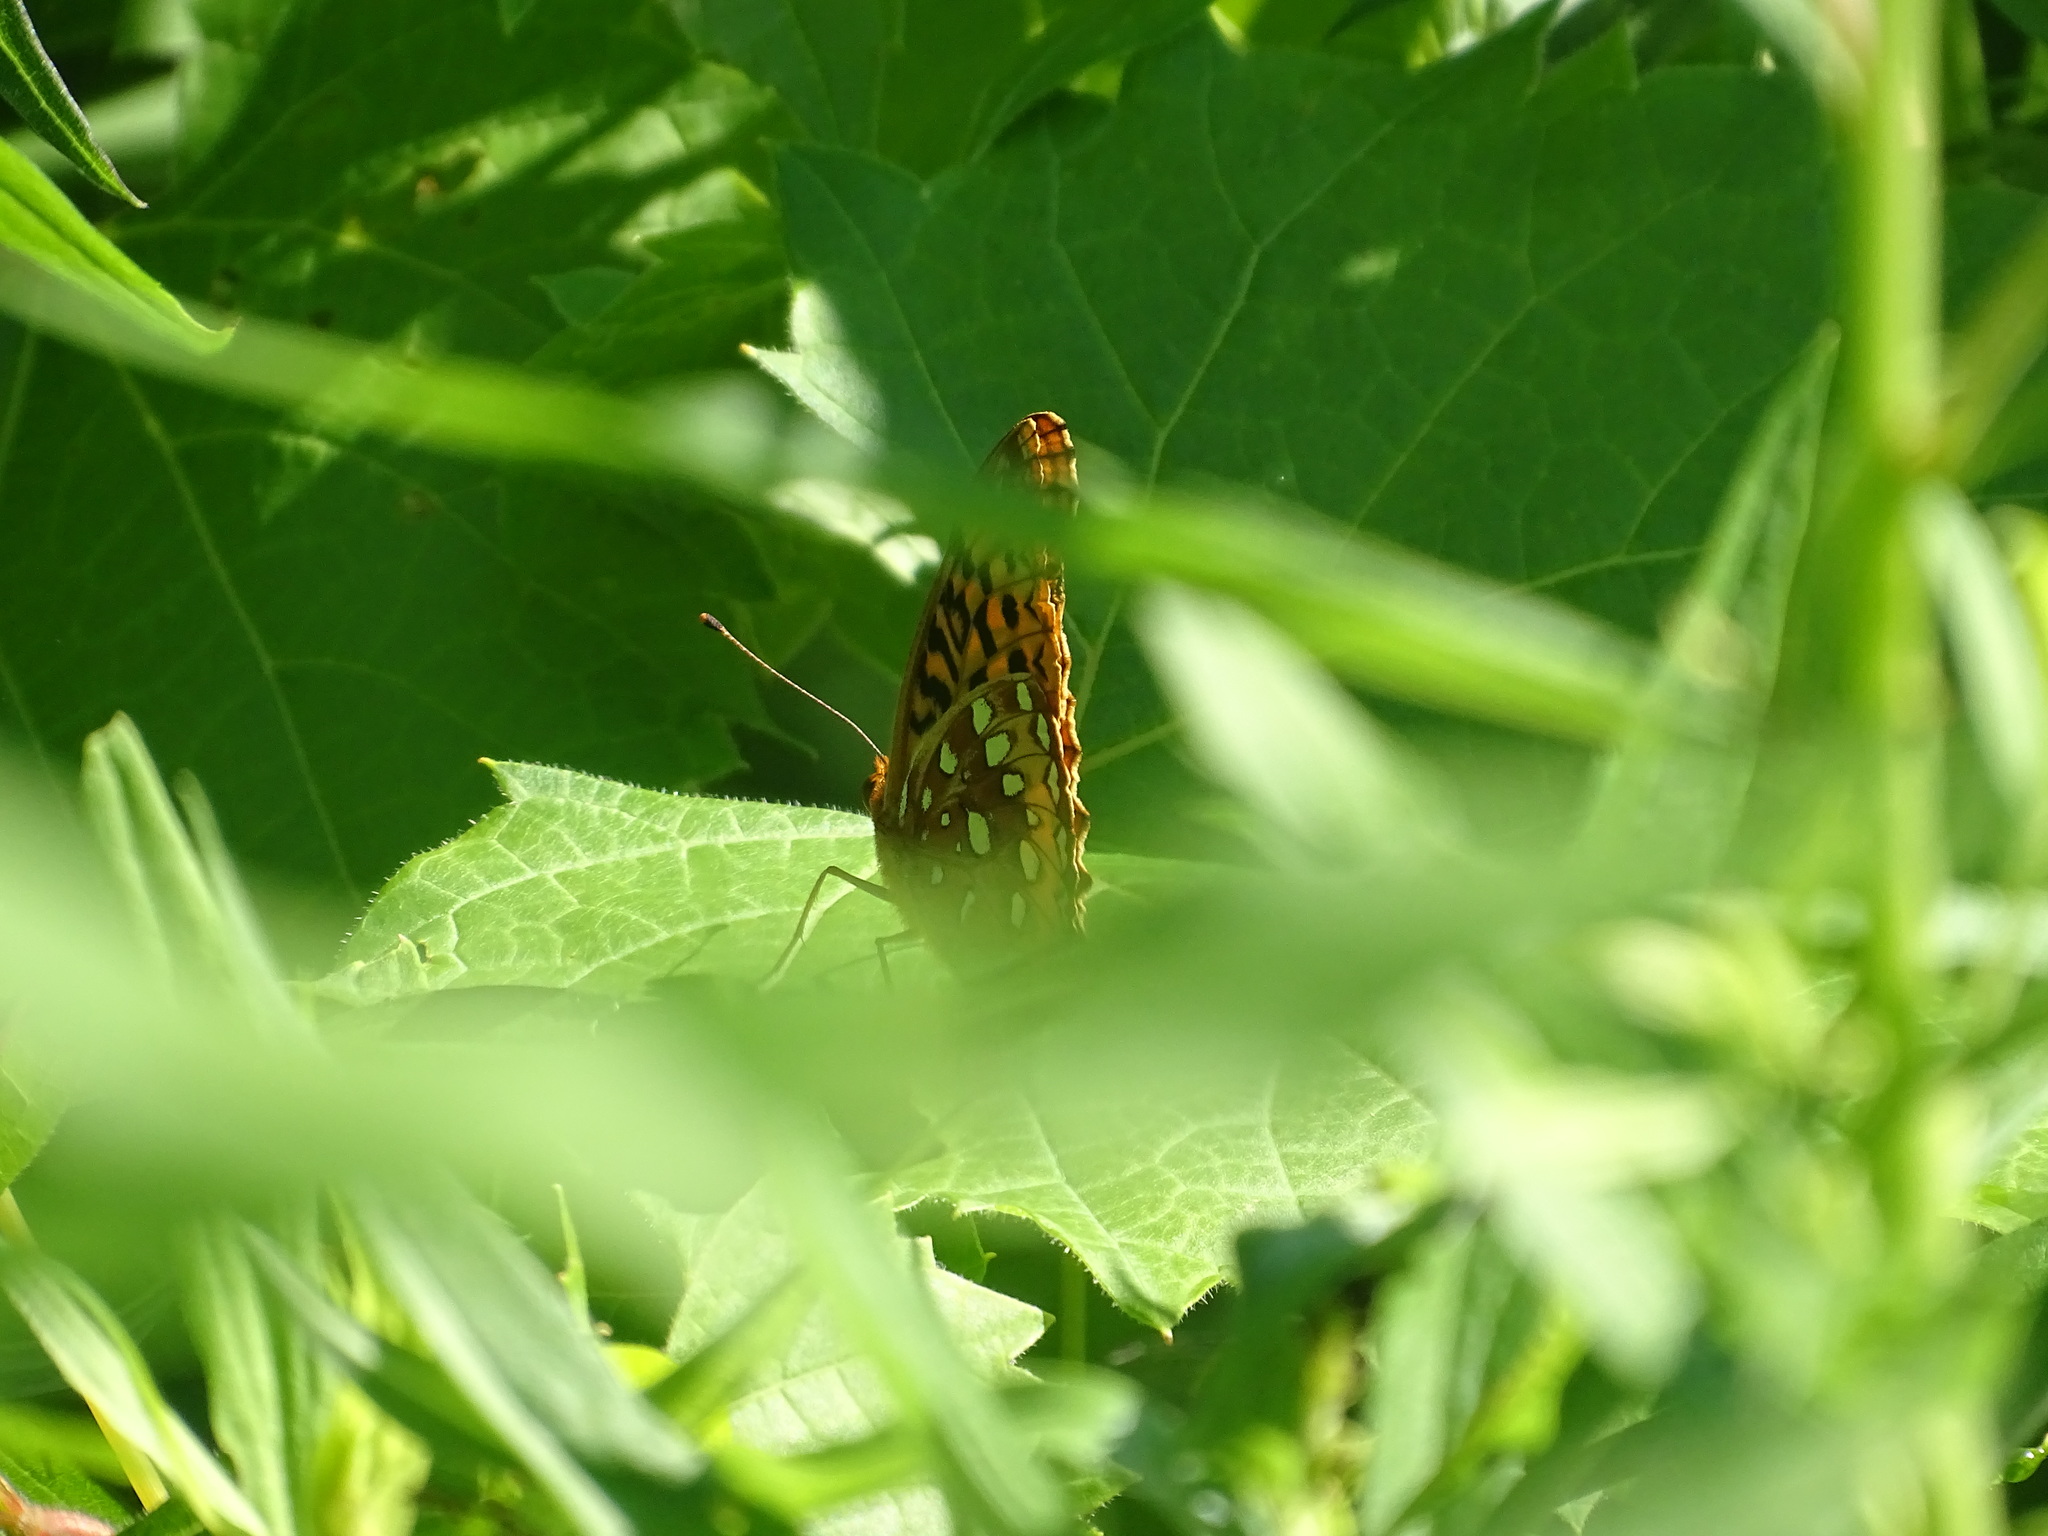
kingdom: Animalia
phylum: Arthropoda
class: Insecta
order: Lepidoptera
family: Nymphalidae
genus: Speyeria
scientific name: Speyeria cybele
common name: Great spangled fritillary
